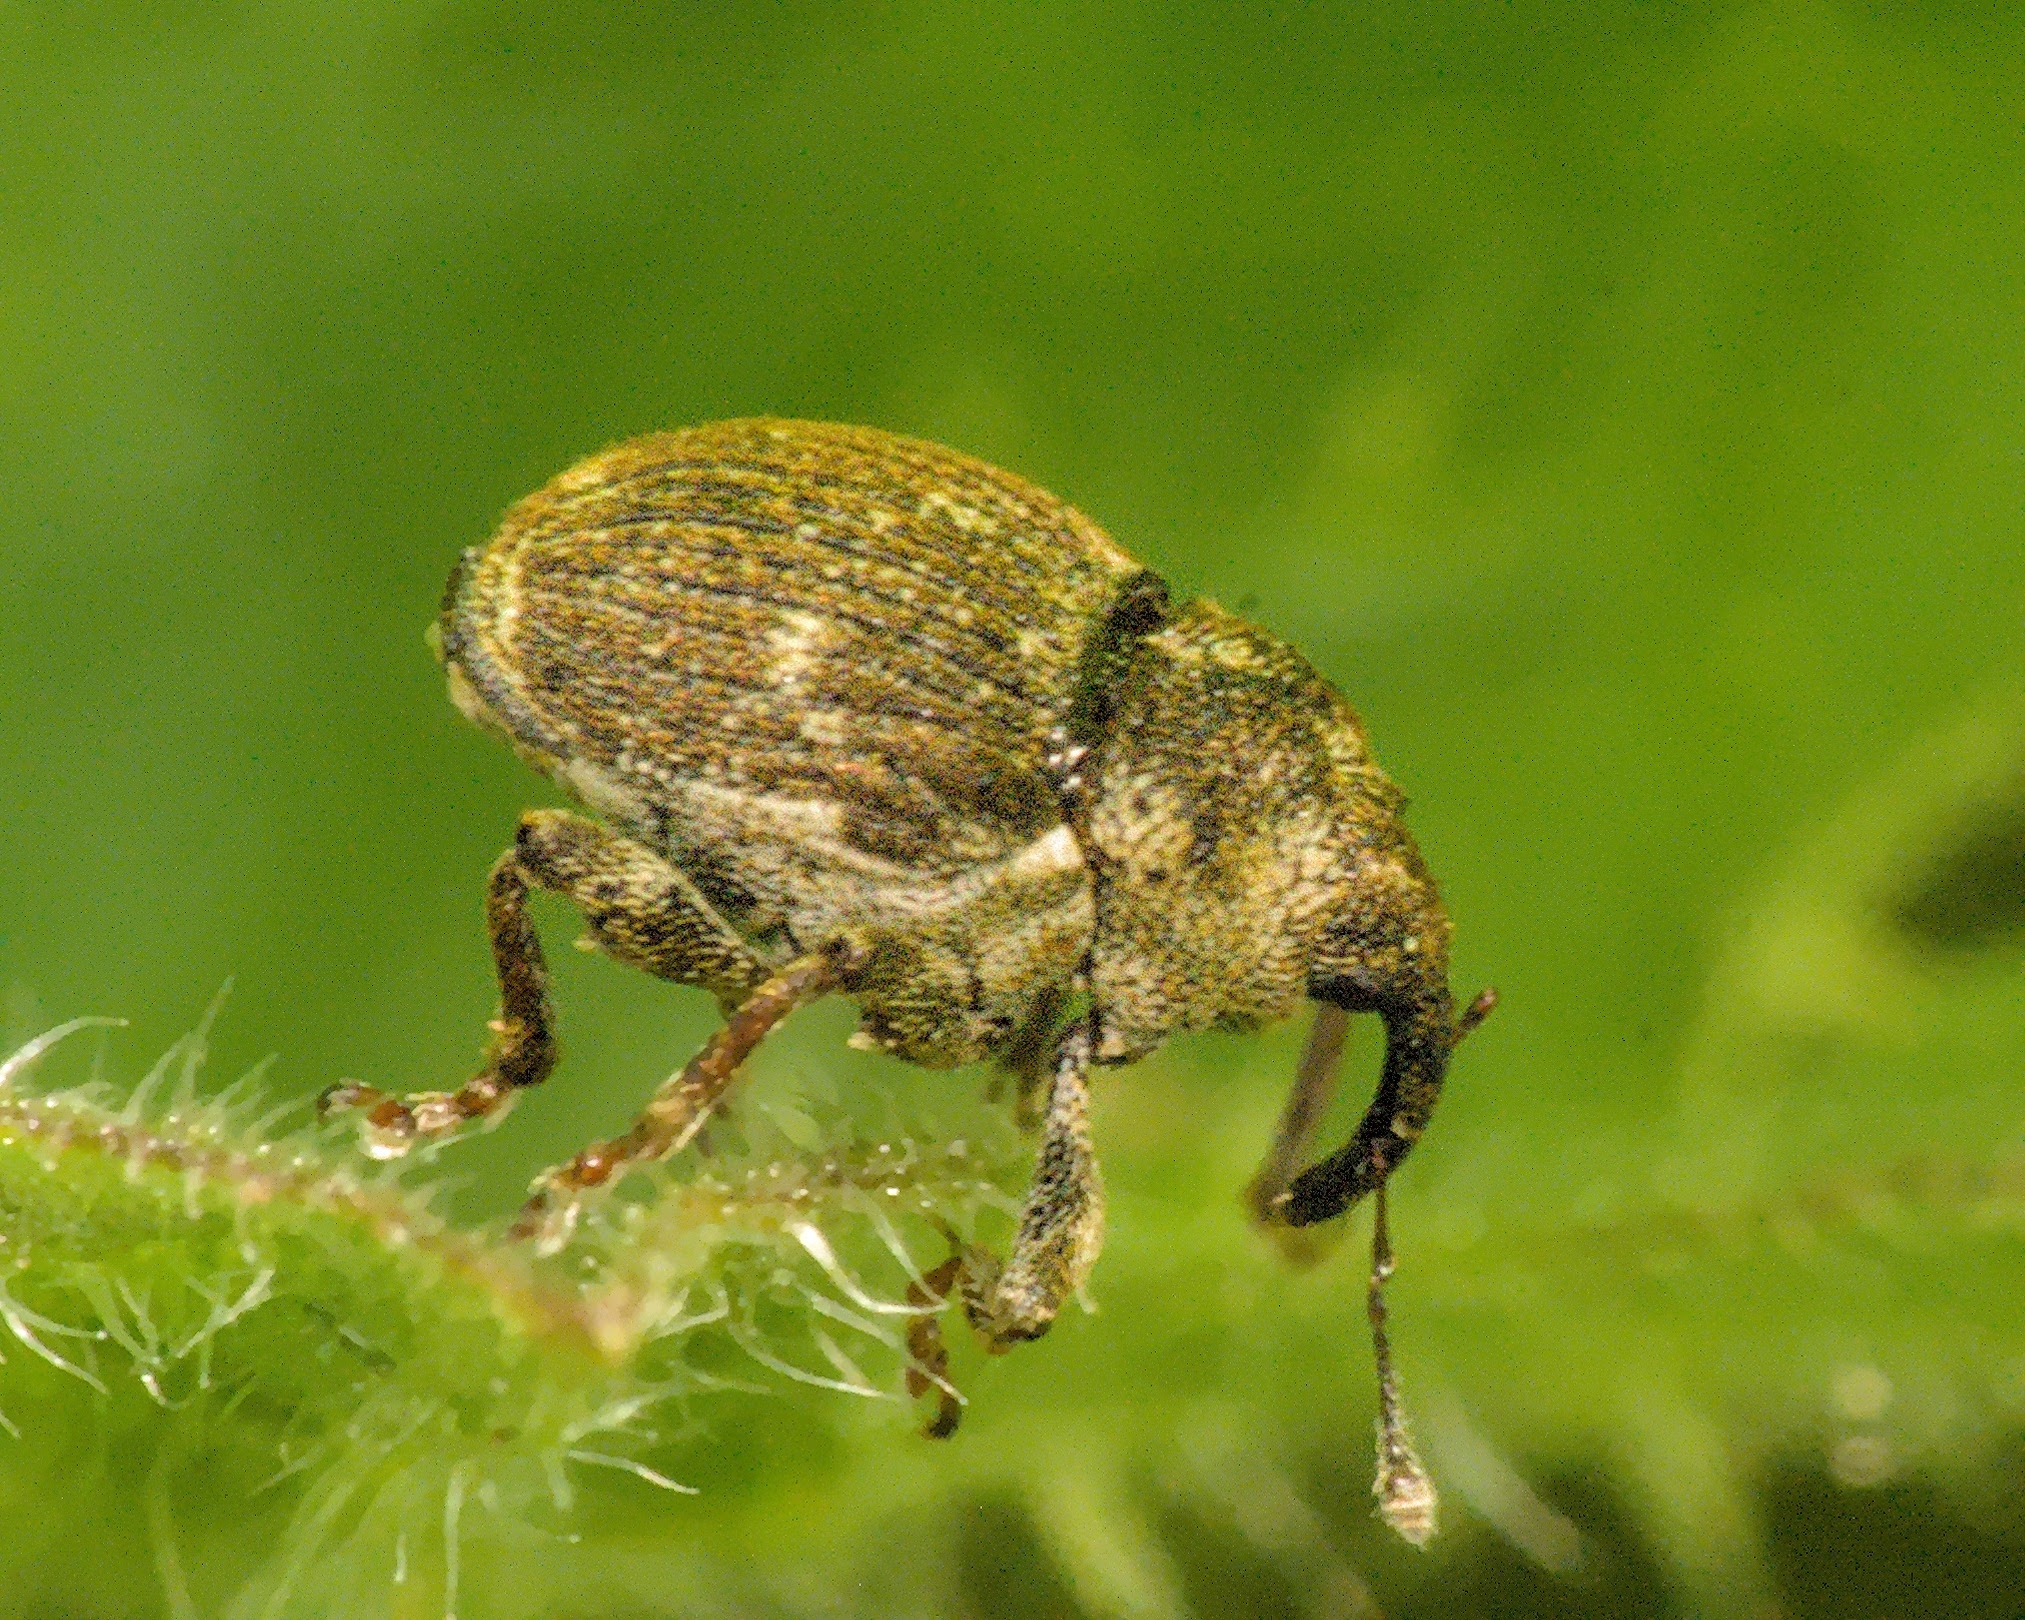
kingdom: Animalia
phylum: Arthropoda
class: Insecta
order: Coleoptera
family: Curculionidae
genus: Nedyus
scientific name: Nedyus quadrimaculatus
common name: Small nettle weevil
